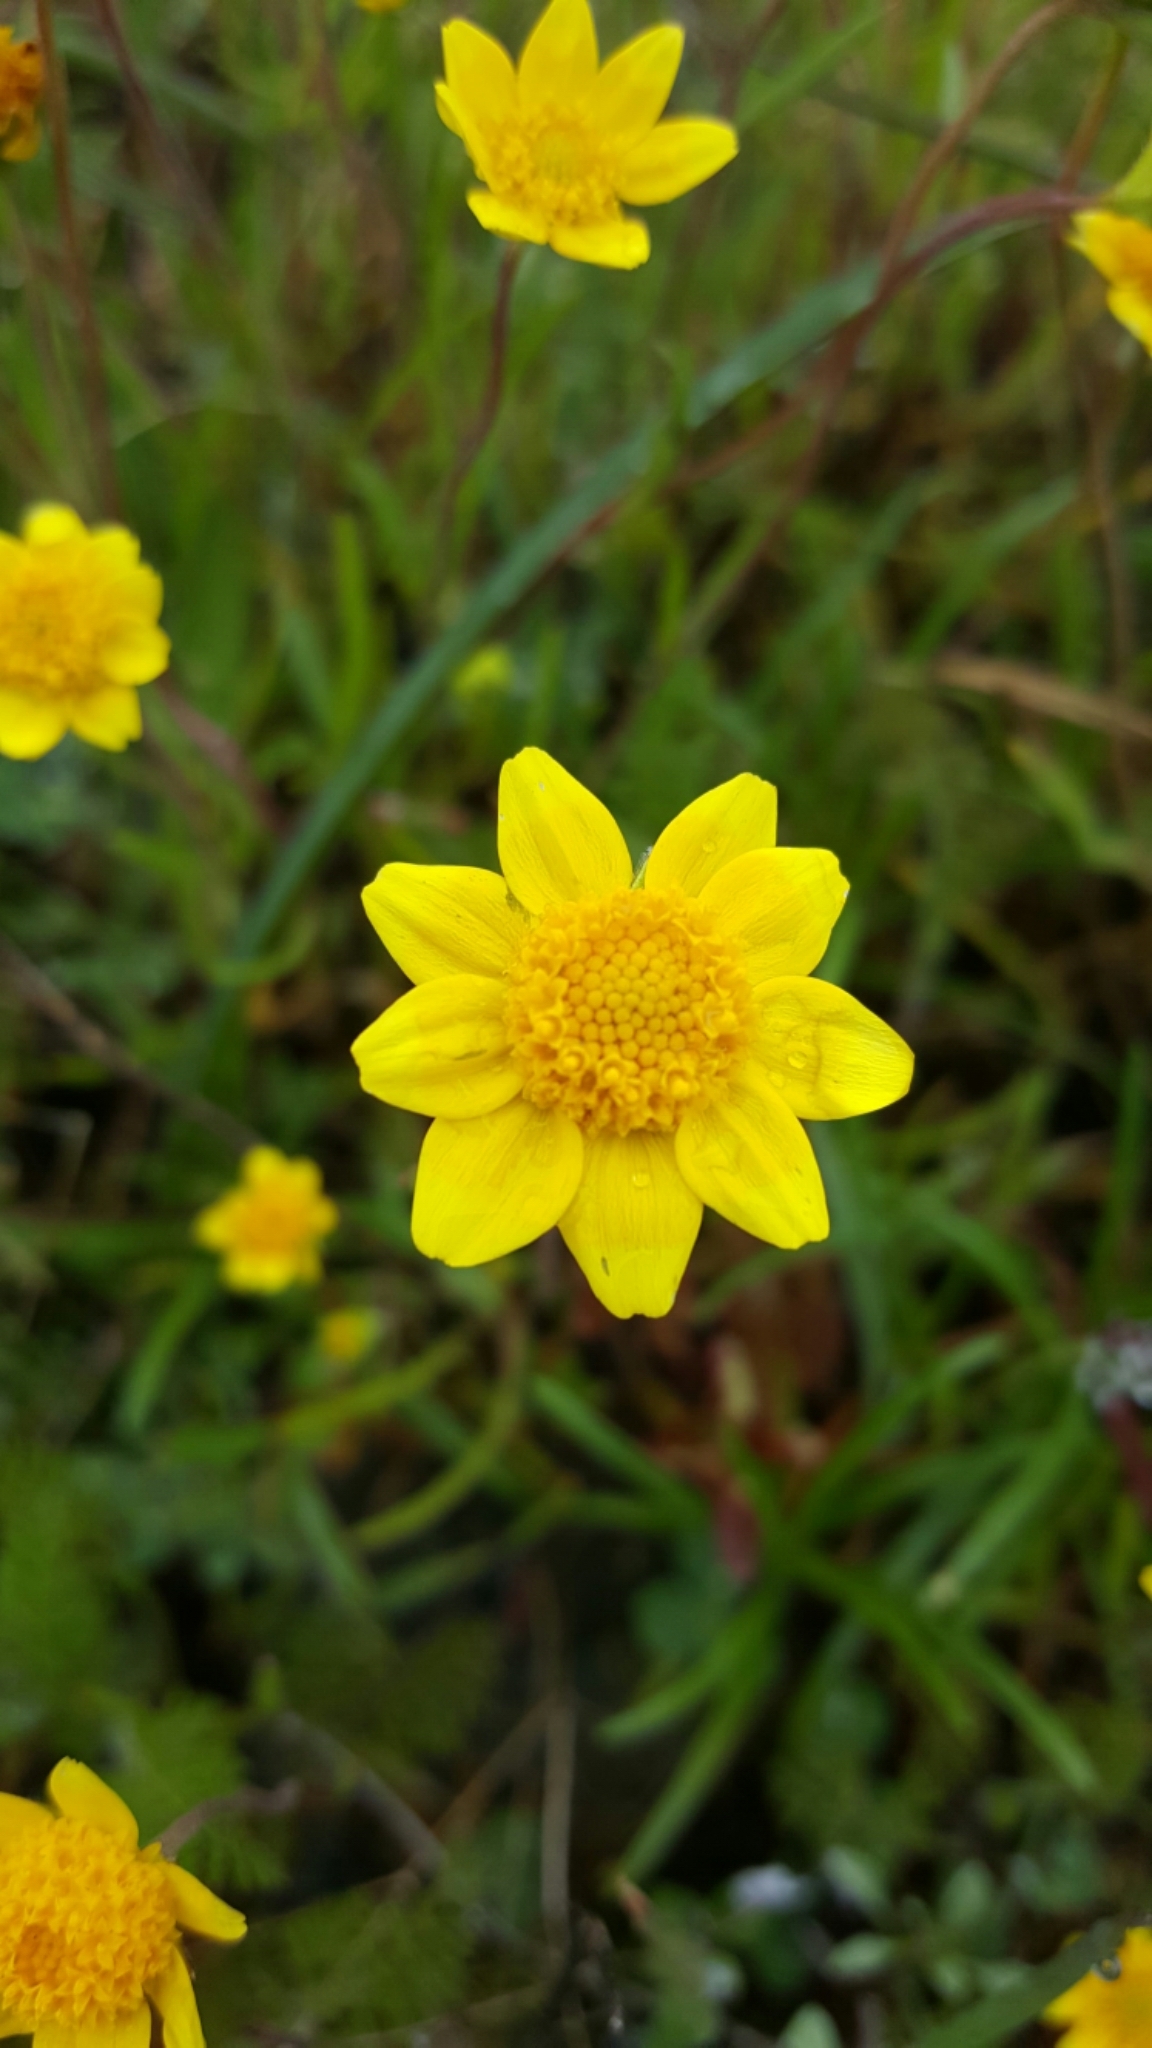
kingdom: Plantae
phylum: Tracheophyta
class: Magnoliopsida
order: Asterales
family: Asteraceae
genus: Lasthenia
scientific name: Lasthenia californica
